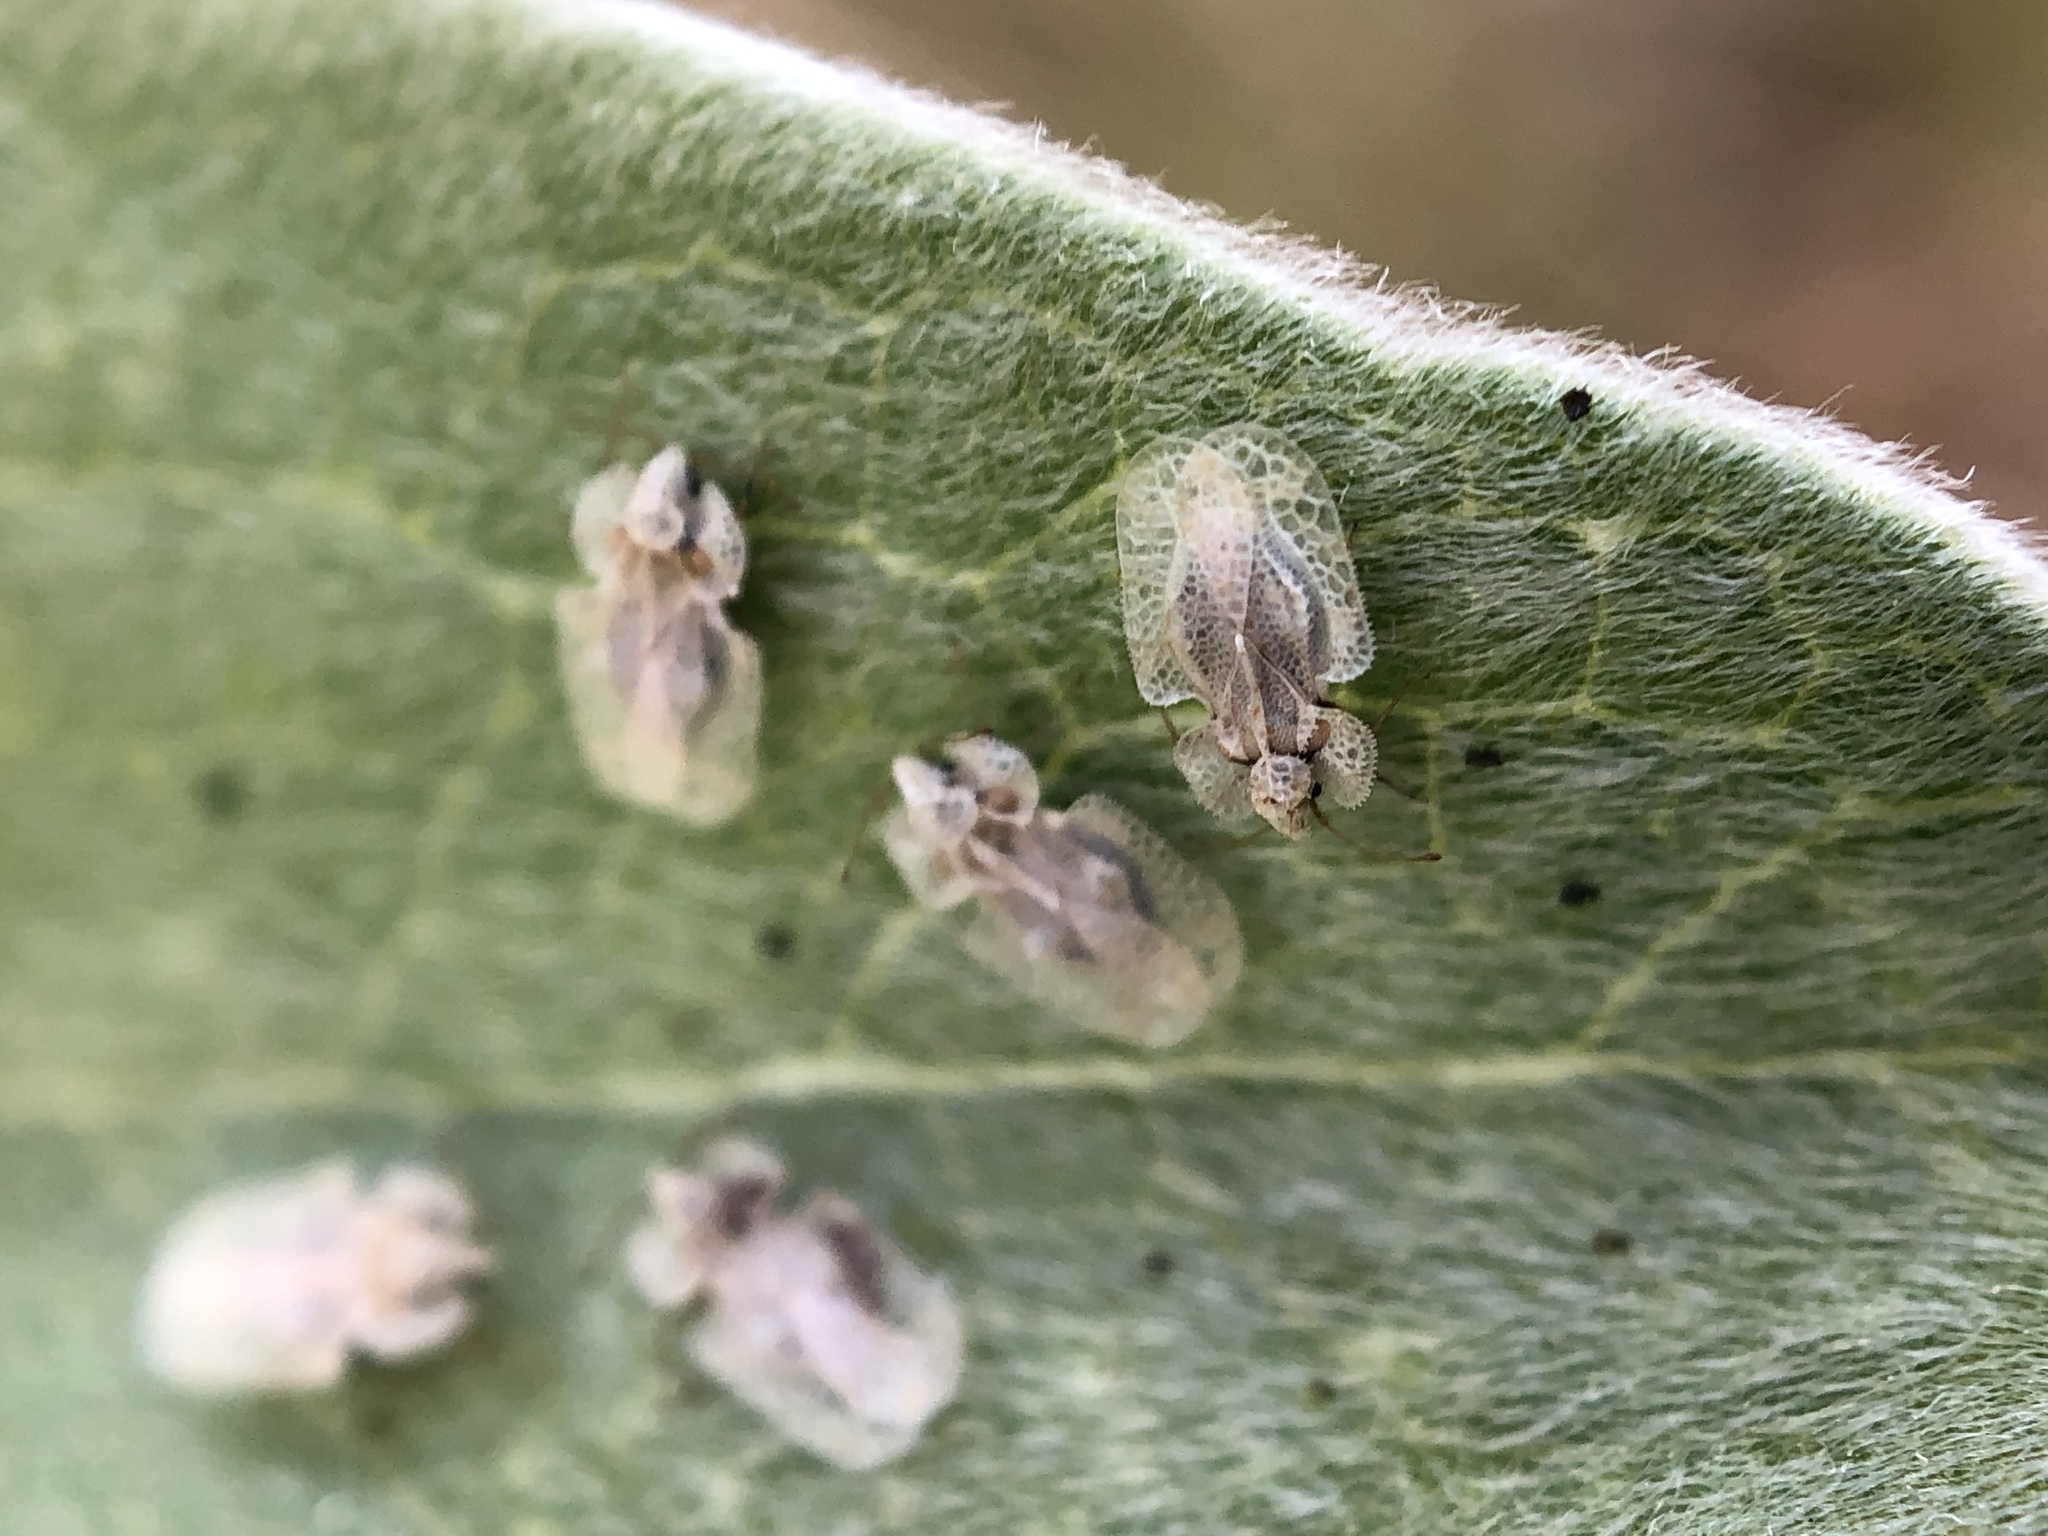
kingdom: Animalia
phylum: Arthropoda
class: Insecta
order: Hemiptera
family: Tingidae
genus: Corythucha
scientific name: Corythucha immaculata
